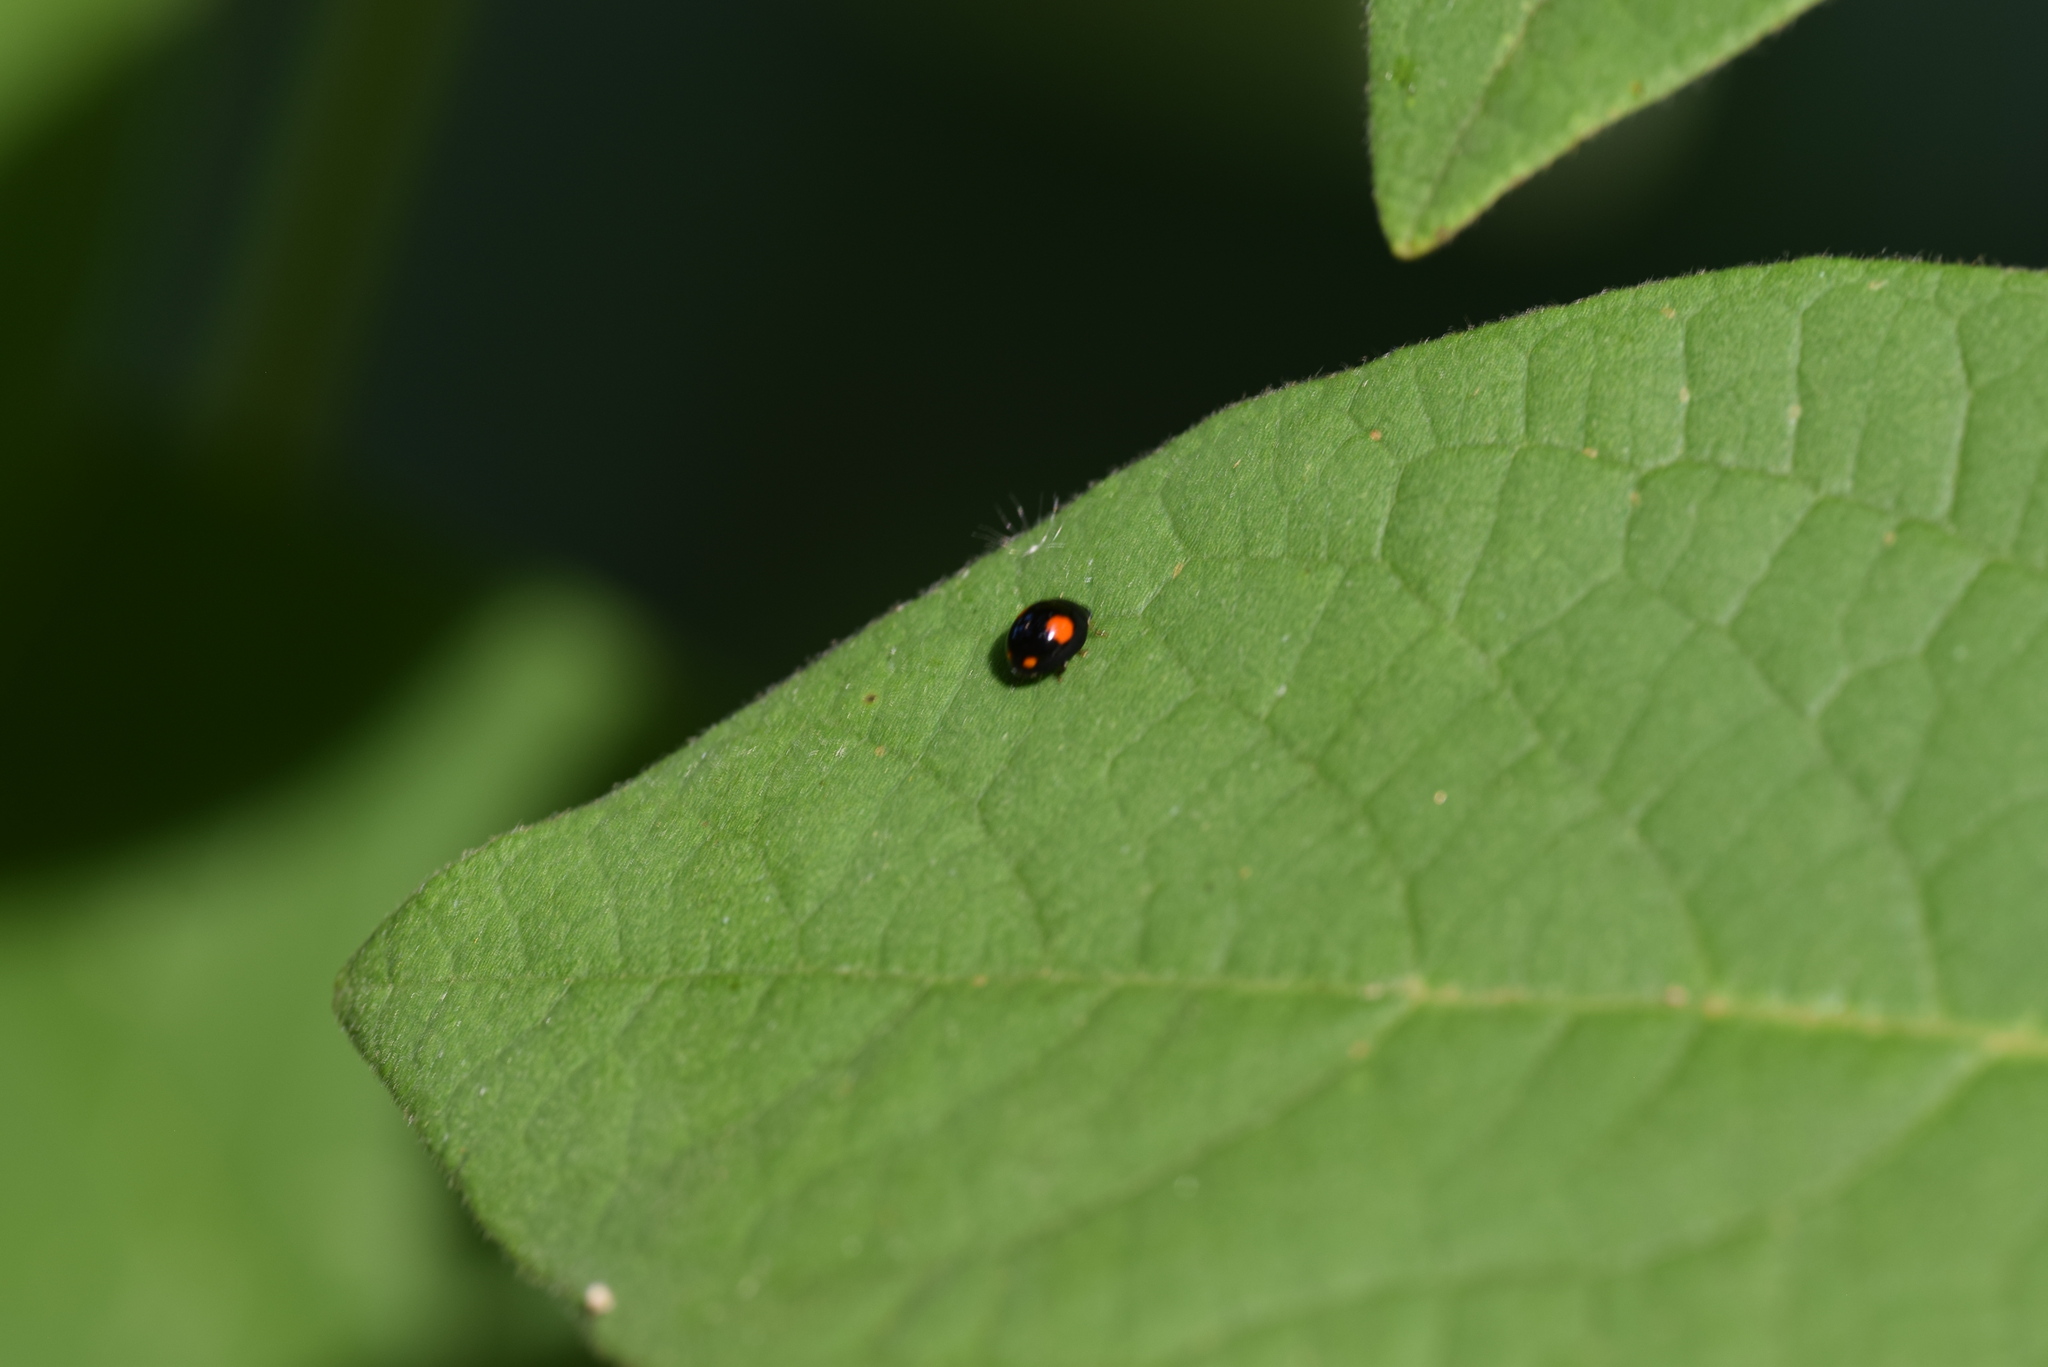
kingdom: Animalia
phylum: Arthropoda
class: Insecta
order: Coleoptera
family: Coccinellidae
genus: Hyperaspis
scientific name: Hyperaspis signata
